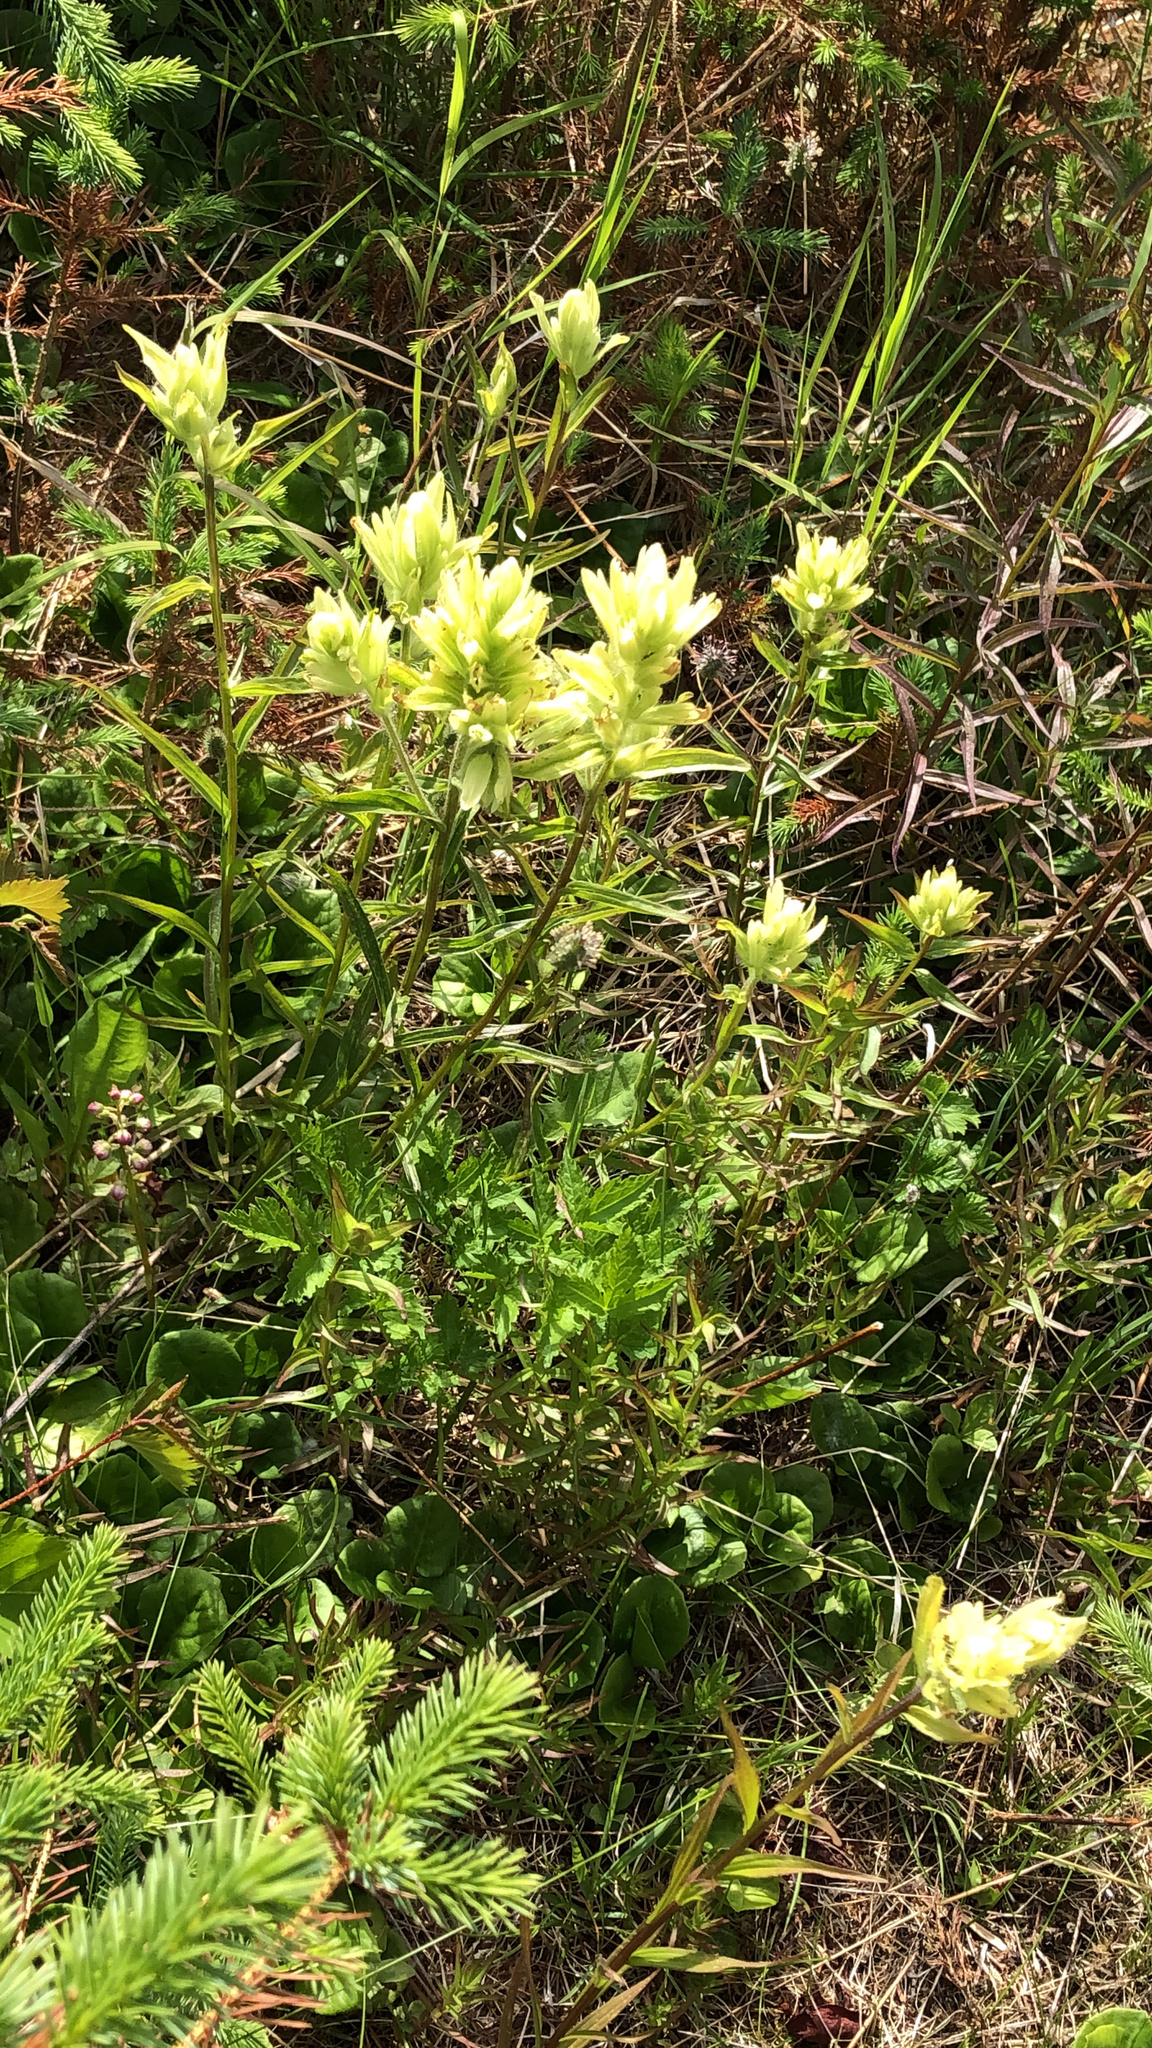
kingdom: Plantae
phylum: Tracheophyta
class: Magnoliopsida
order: Lamiales
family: Orobanchaceae
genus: Castilleja
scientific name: Castilleja unalaschcensis
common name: Unalaska paintbrush
